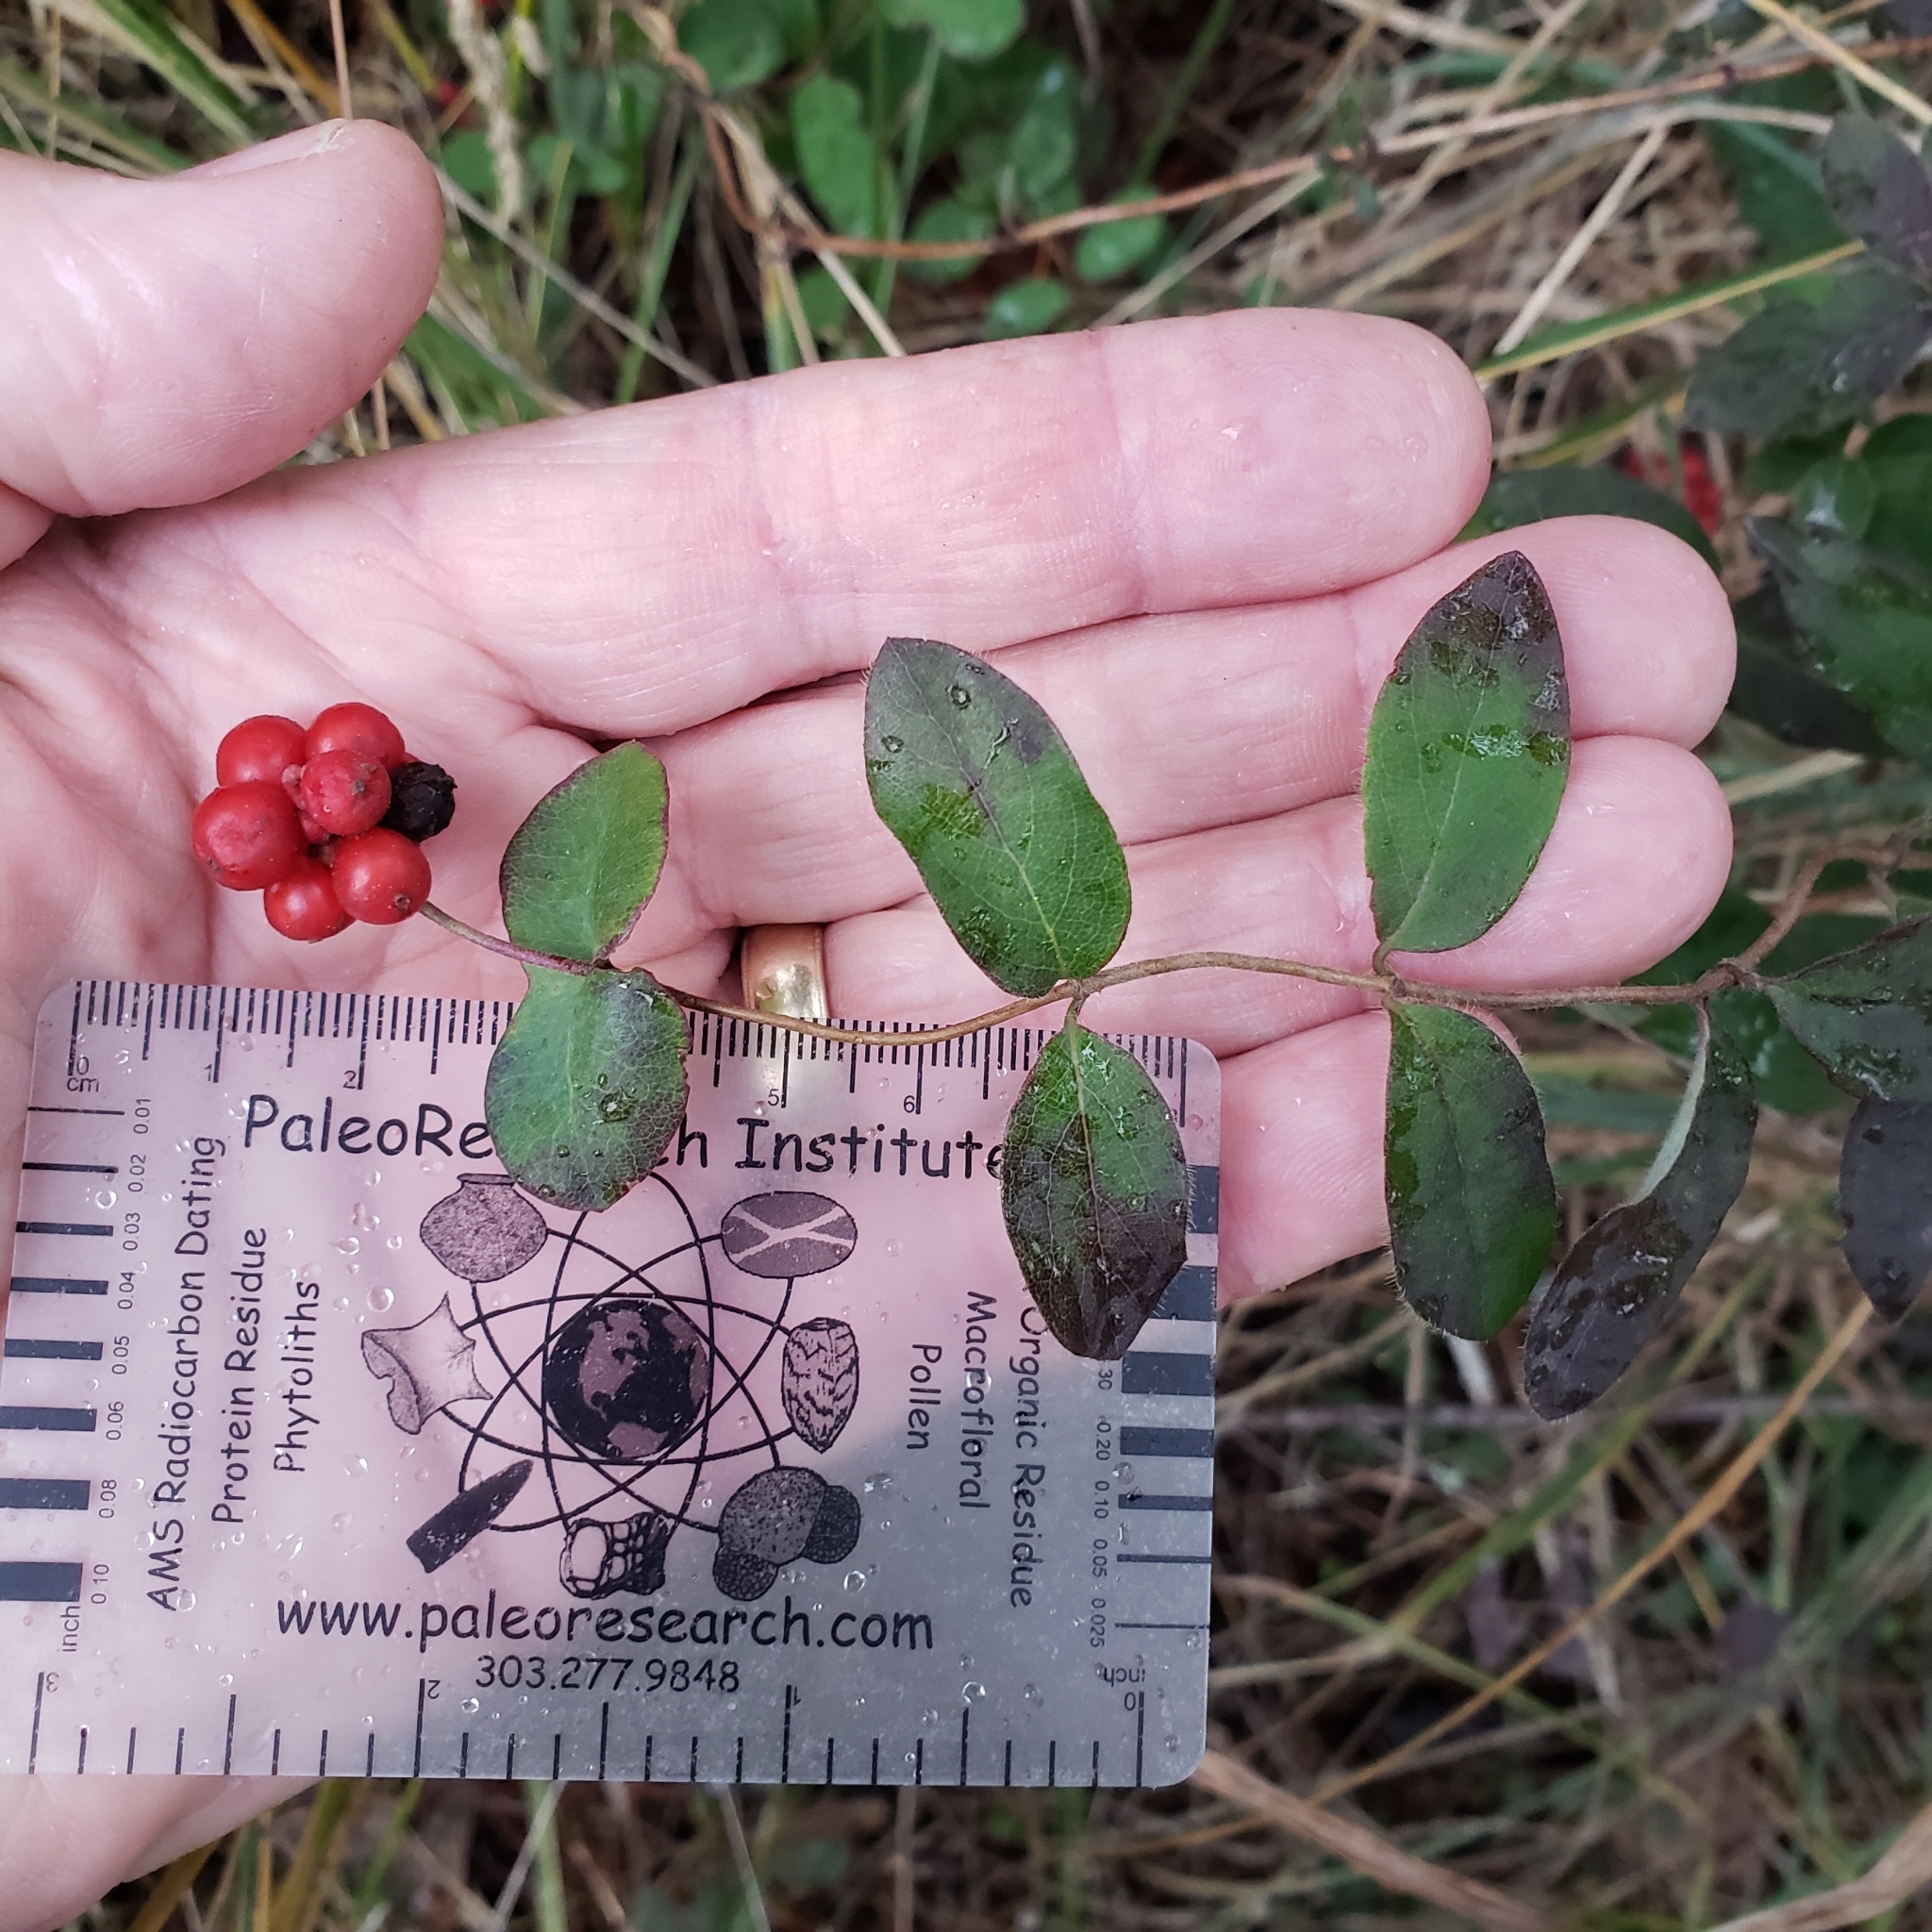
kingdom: Plantae
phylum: Tracheophyta
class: Magnoliopsida
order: Dipsacales
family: Caprifoliaceae
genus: Lonicera
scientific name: Lonicera hispidula
